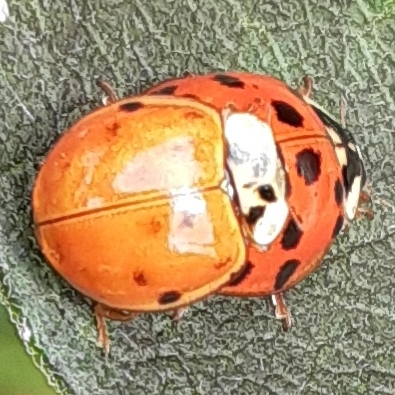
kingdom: Animalia
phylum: Arthropoda
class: Insecta
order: Coleoptera
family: Coccinellidae
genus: Harmonia
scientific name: Harmonia axyridis
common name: Harlequin ladybird
